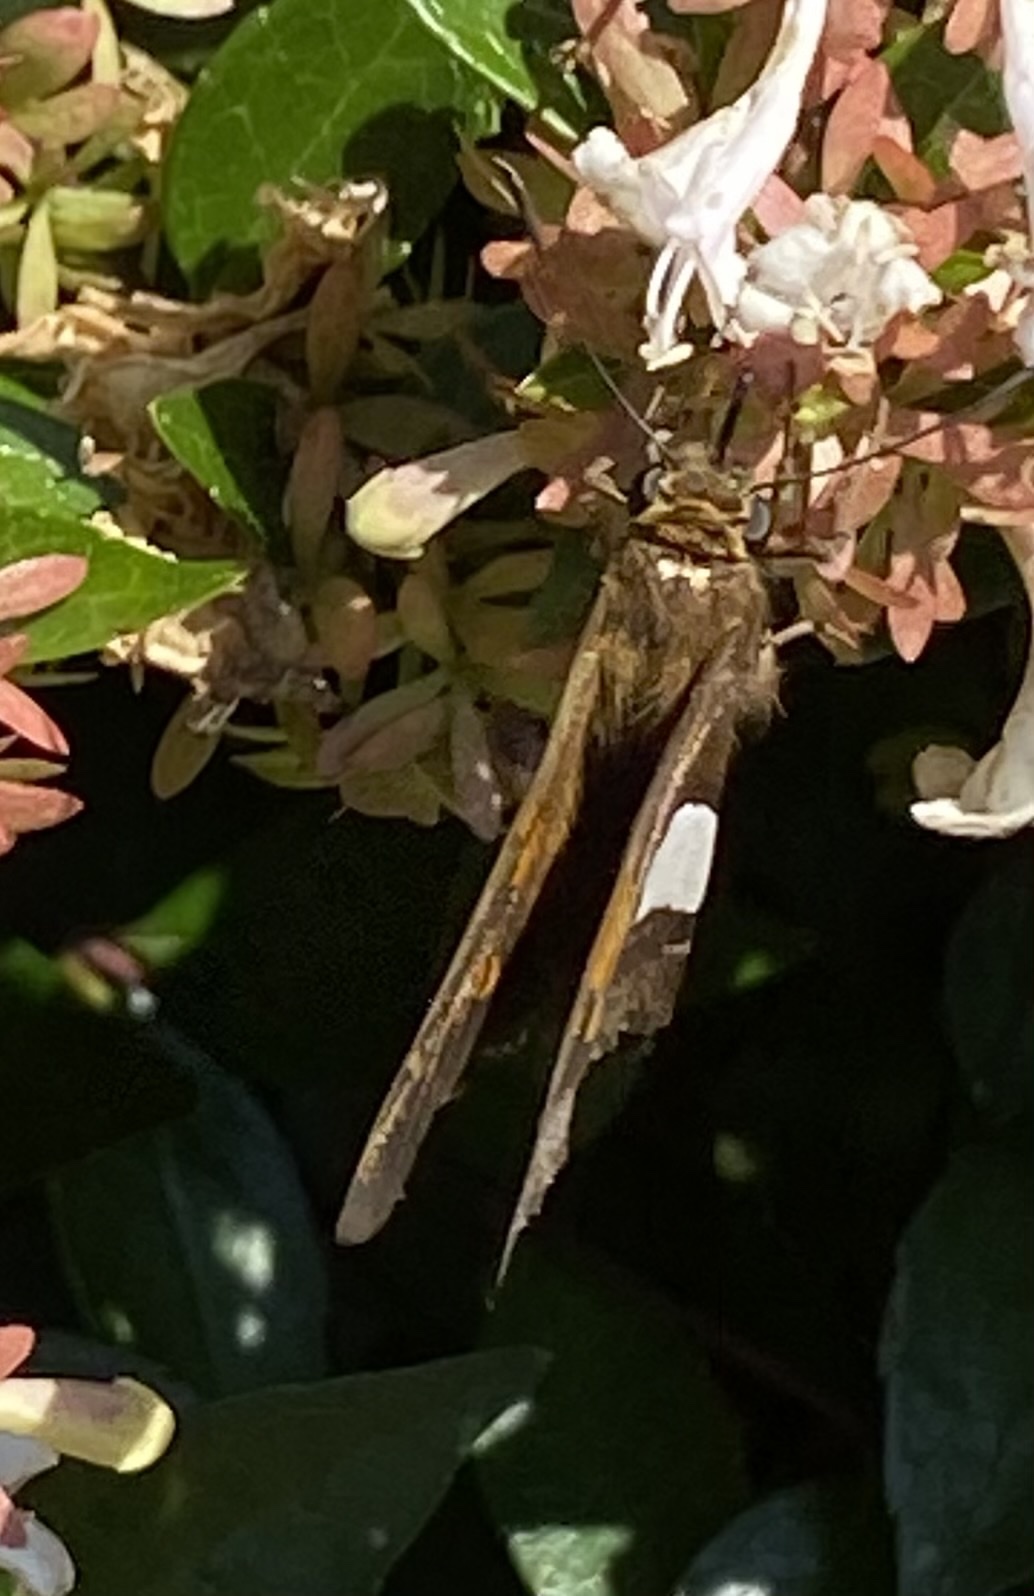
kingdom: Animalia
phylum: Arthropoda
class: Insecta
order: Lepidoptera
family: Hesperiidae
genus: Epargyreus
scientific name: Epargyreus clarus
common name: Silver-spotted skipper
